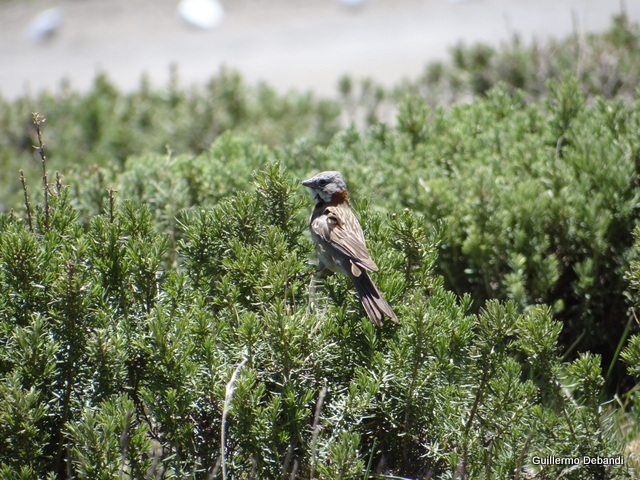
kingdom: Animalia
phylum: Chordata
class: Aves
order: Passeriformes
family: Passerellidae
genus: Zonotrichia
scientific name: Zonotrichia capensis
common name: Rufous-collared sparrow
